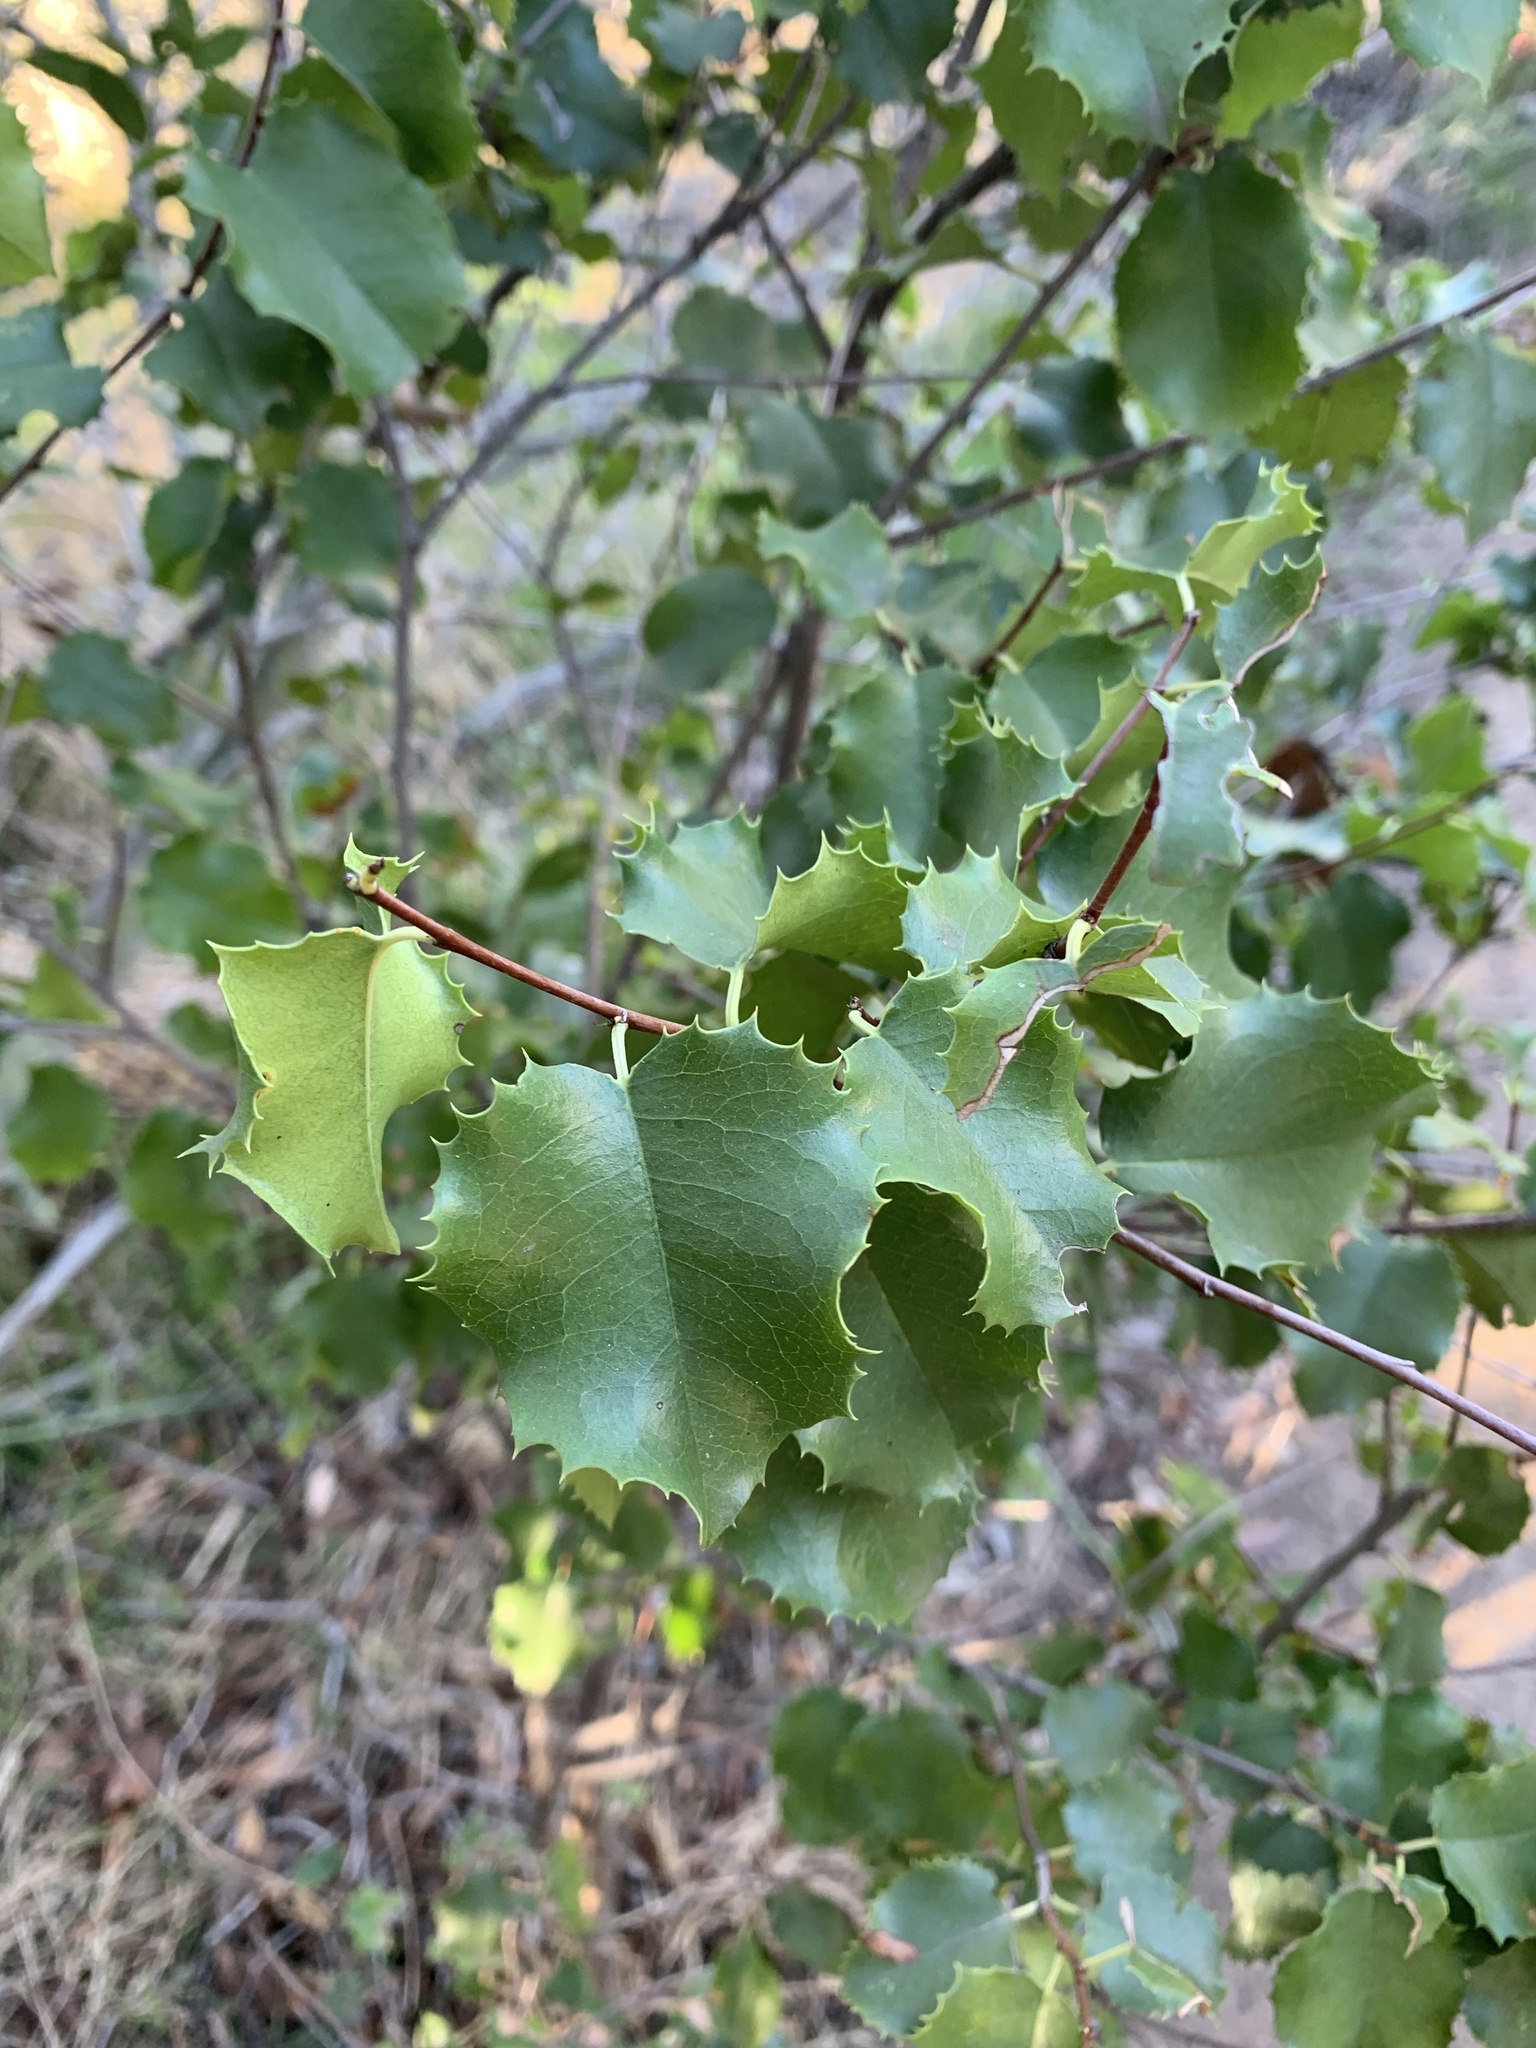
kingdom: Plantae
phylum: Tracheophyta
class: Magnoliopsida
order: Rosales
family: Rosaceae
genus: Prunus
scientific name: Prunus ilicifolia
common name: Hollyleaf cherry
